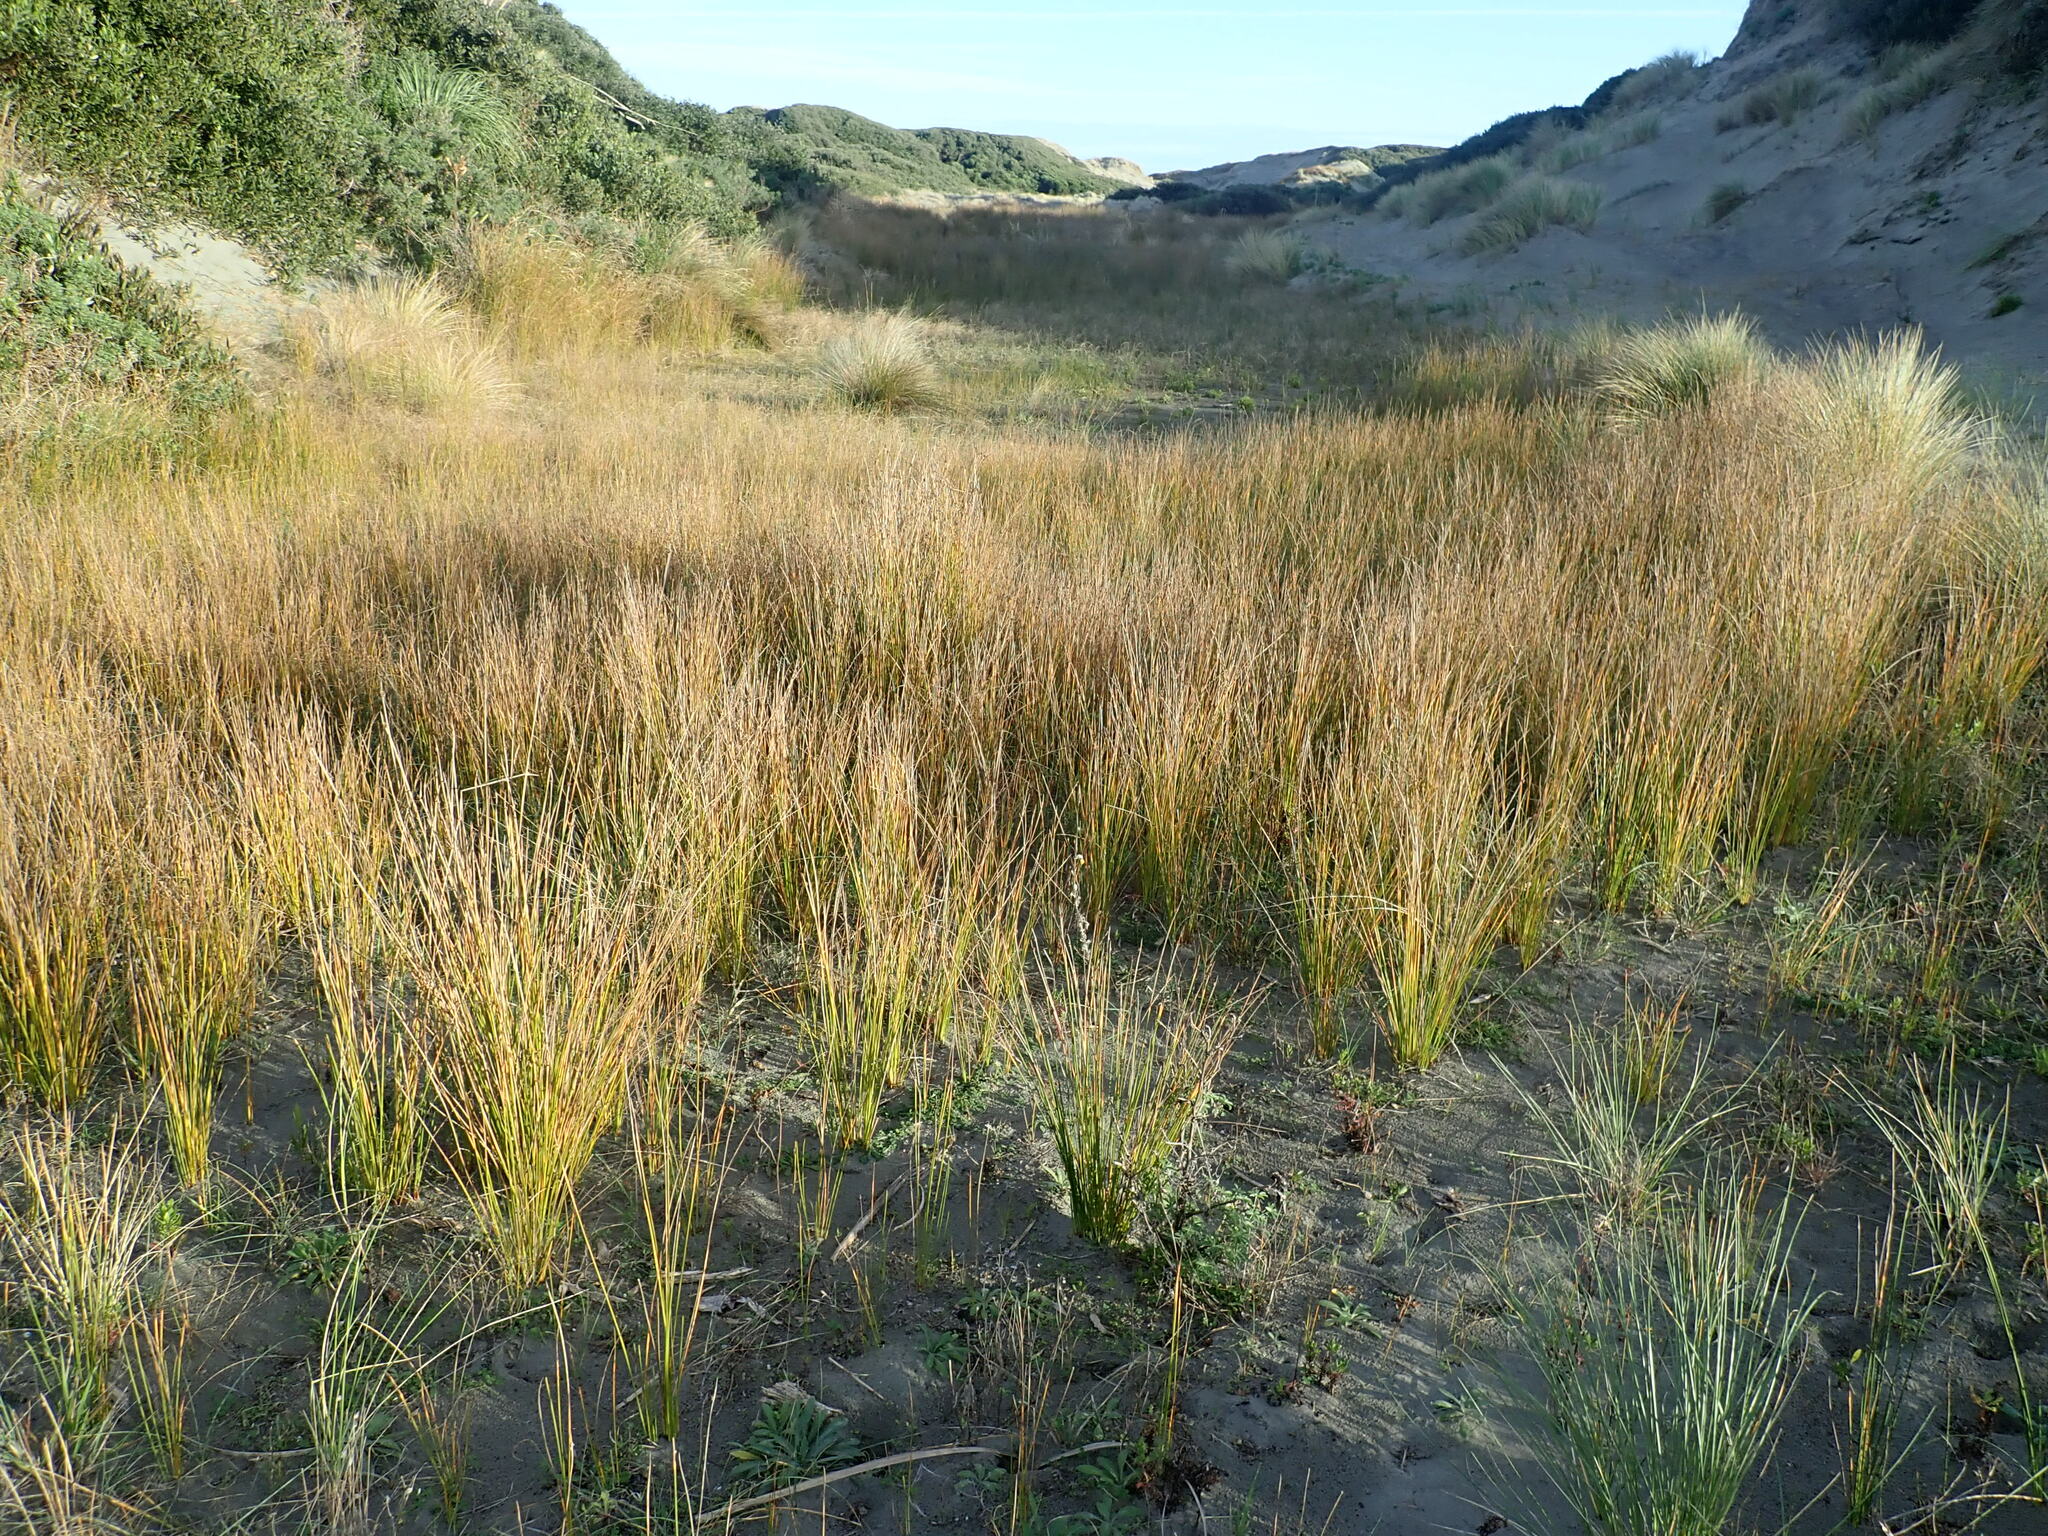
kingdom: Plantae
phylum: Tracheophyta
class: Liliopsida
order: Poales
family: Cyperaceae
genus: Ficinia
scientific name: Ficinia nodosa
